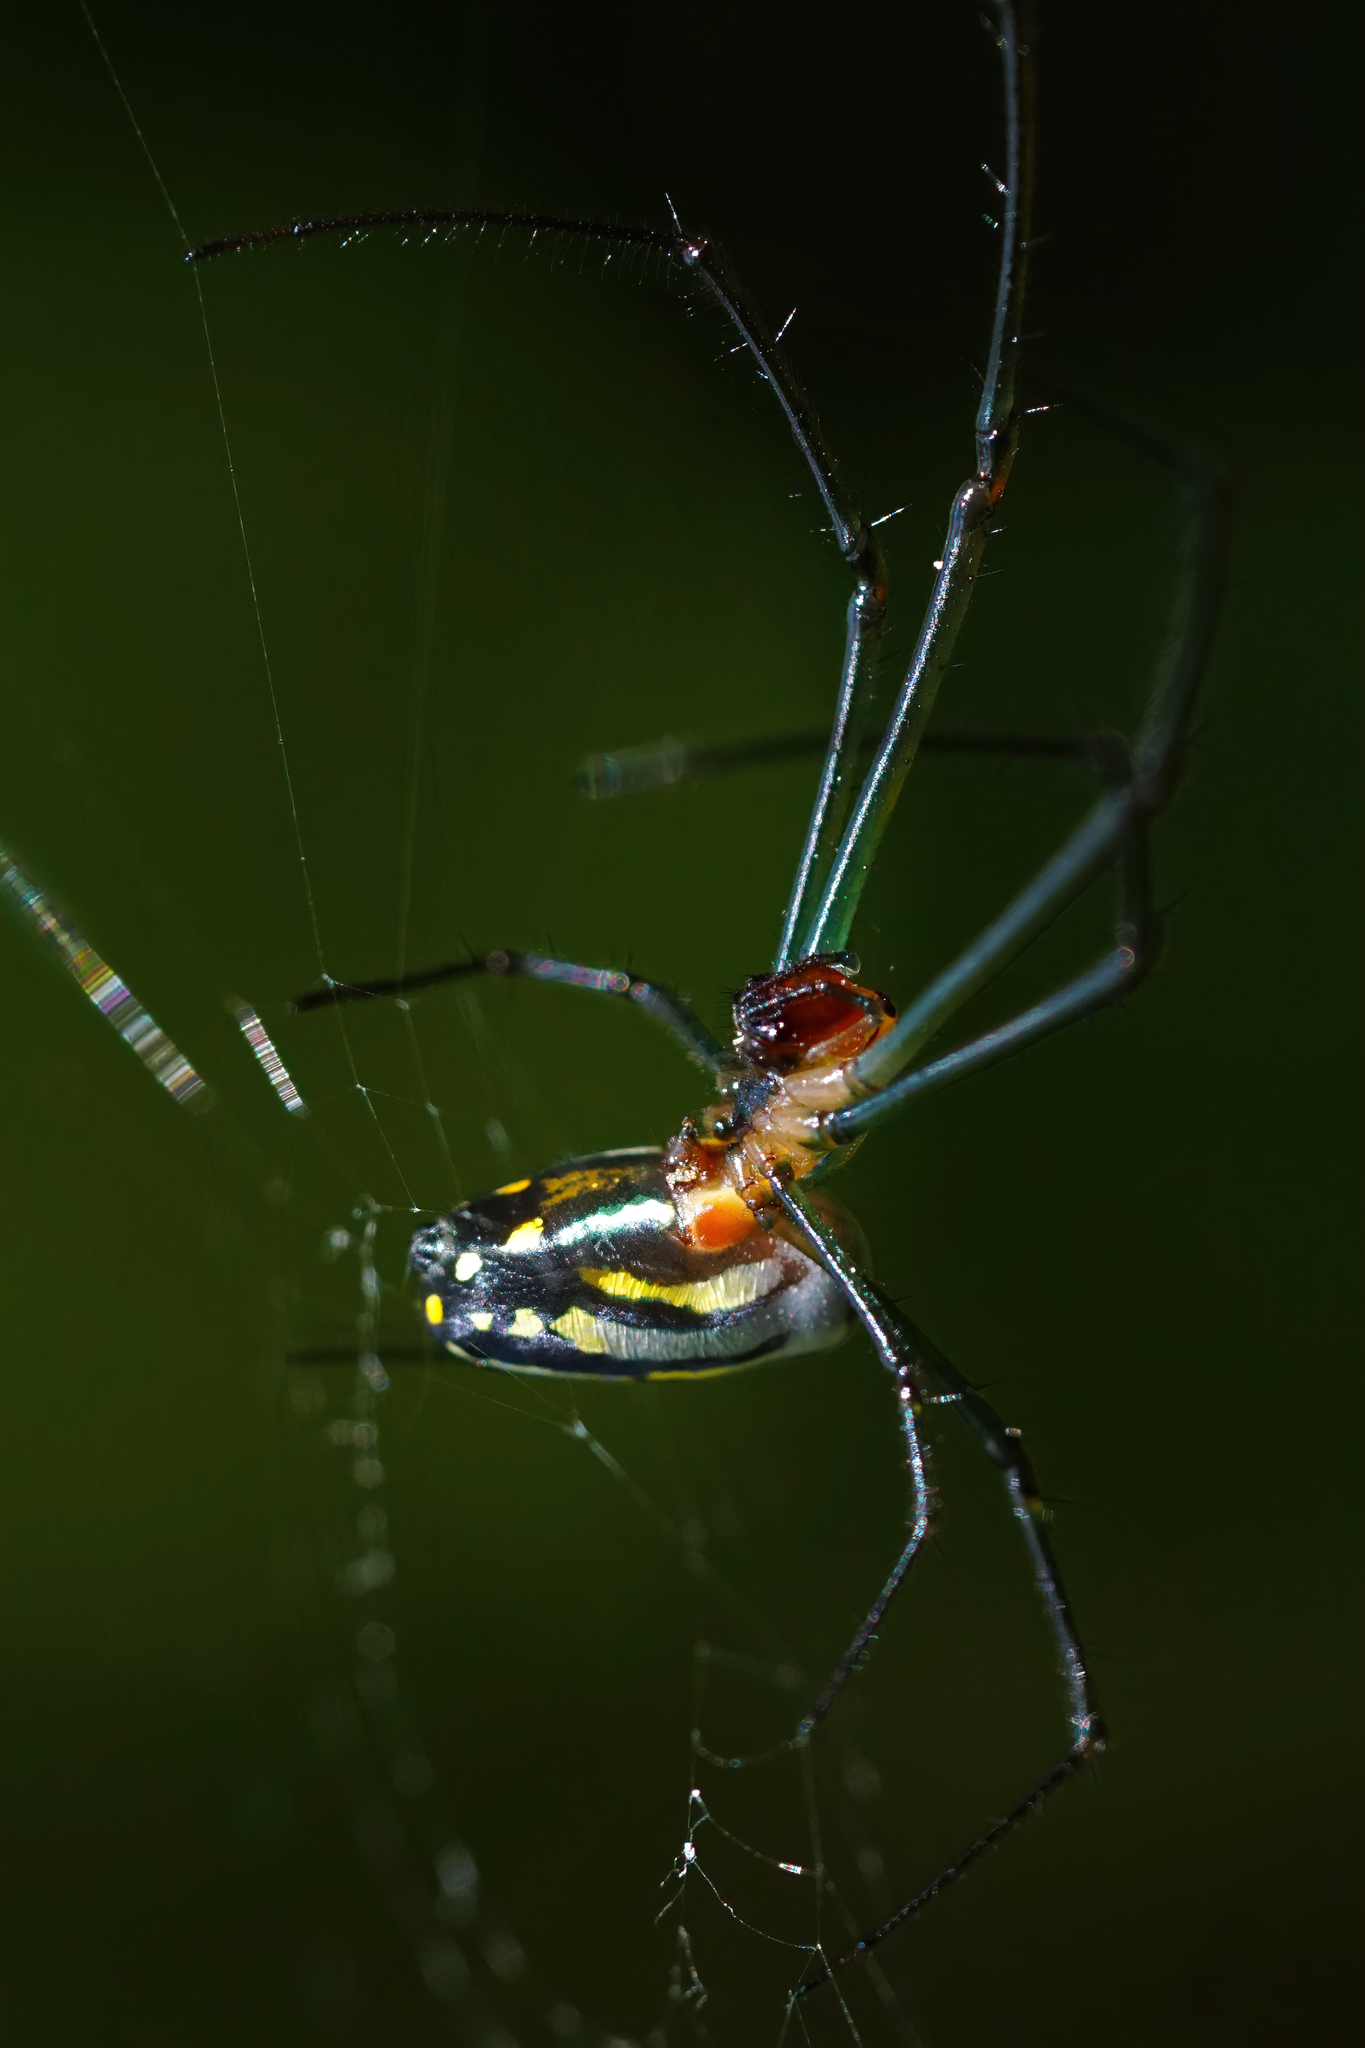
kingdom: Animalia
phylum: Arthropoda
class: Arachnida
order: Araneae
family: Tetragnathidae
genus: Leucauge
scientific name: Leucauge argyra
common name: Longjawed orb weavers
